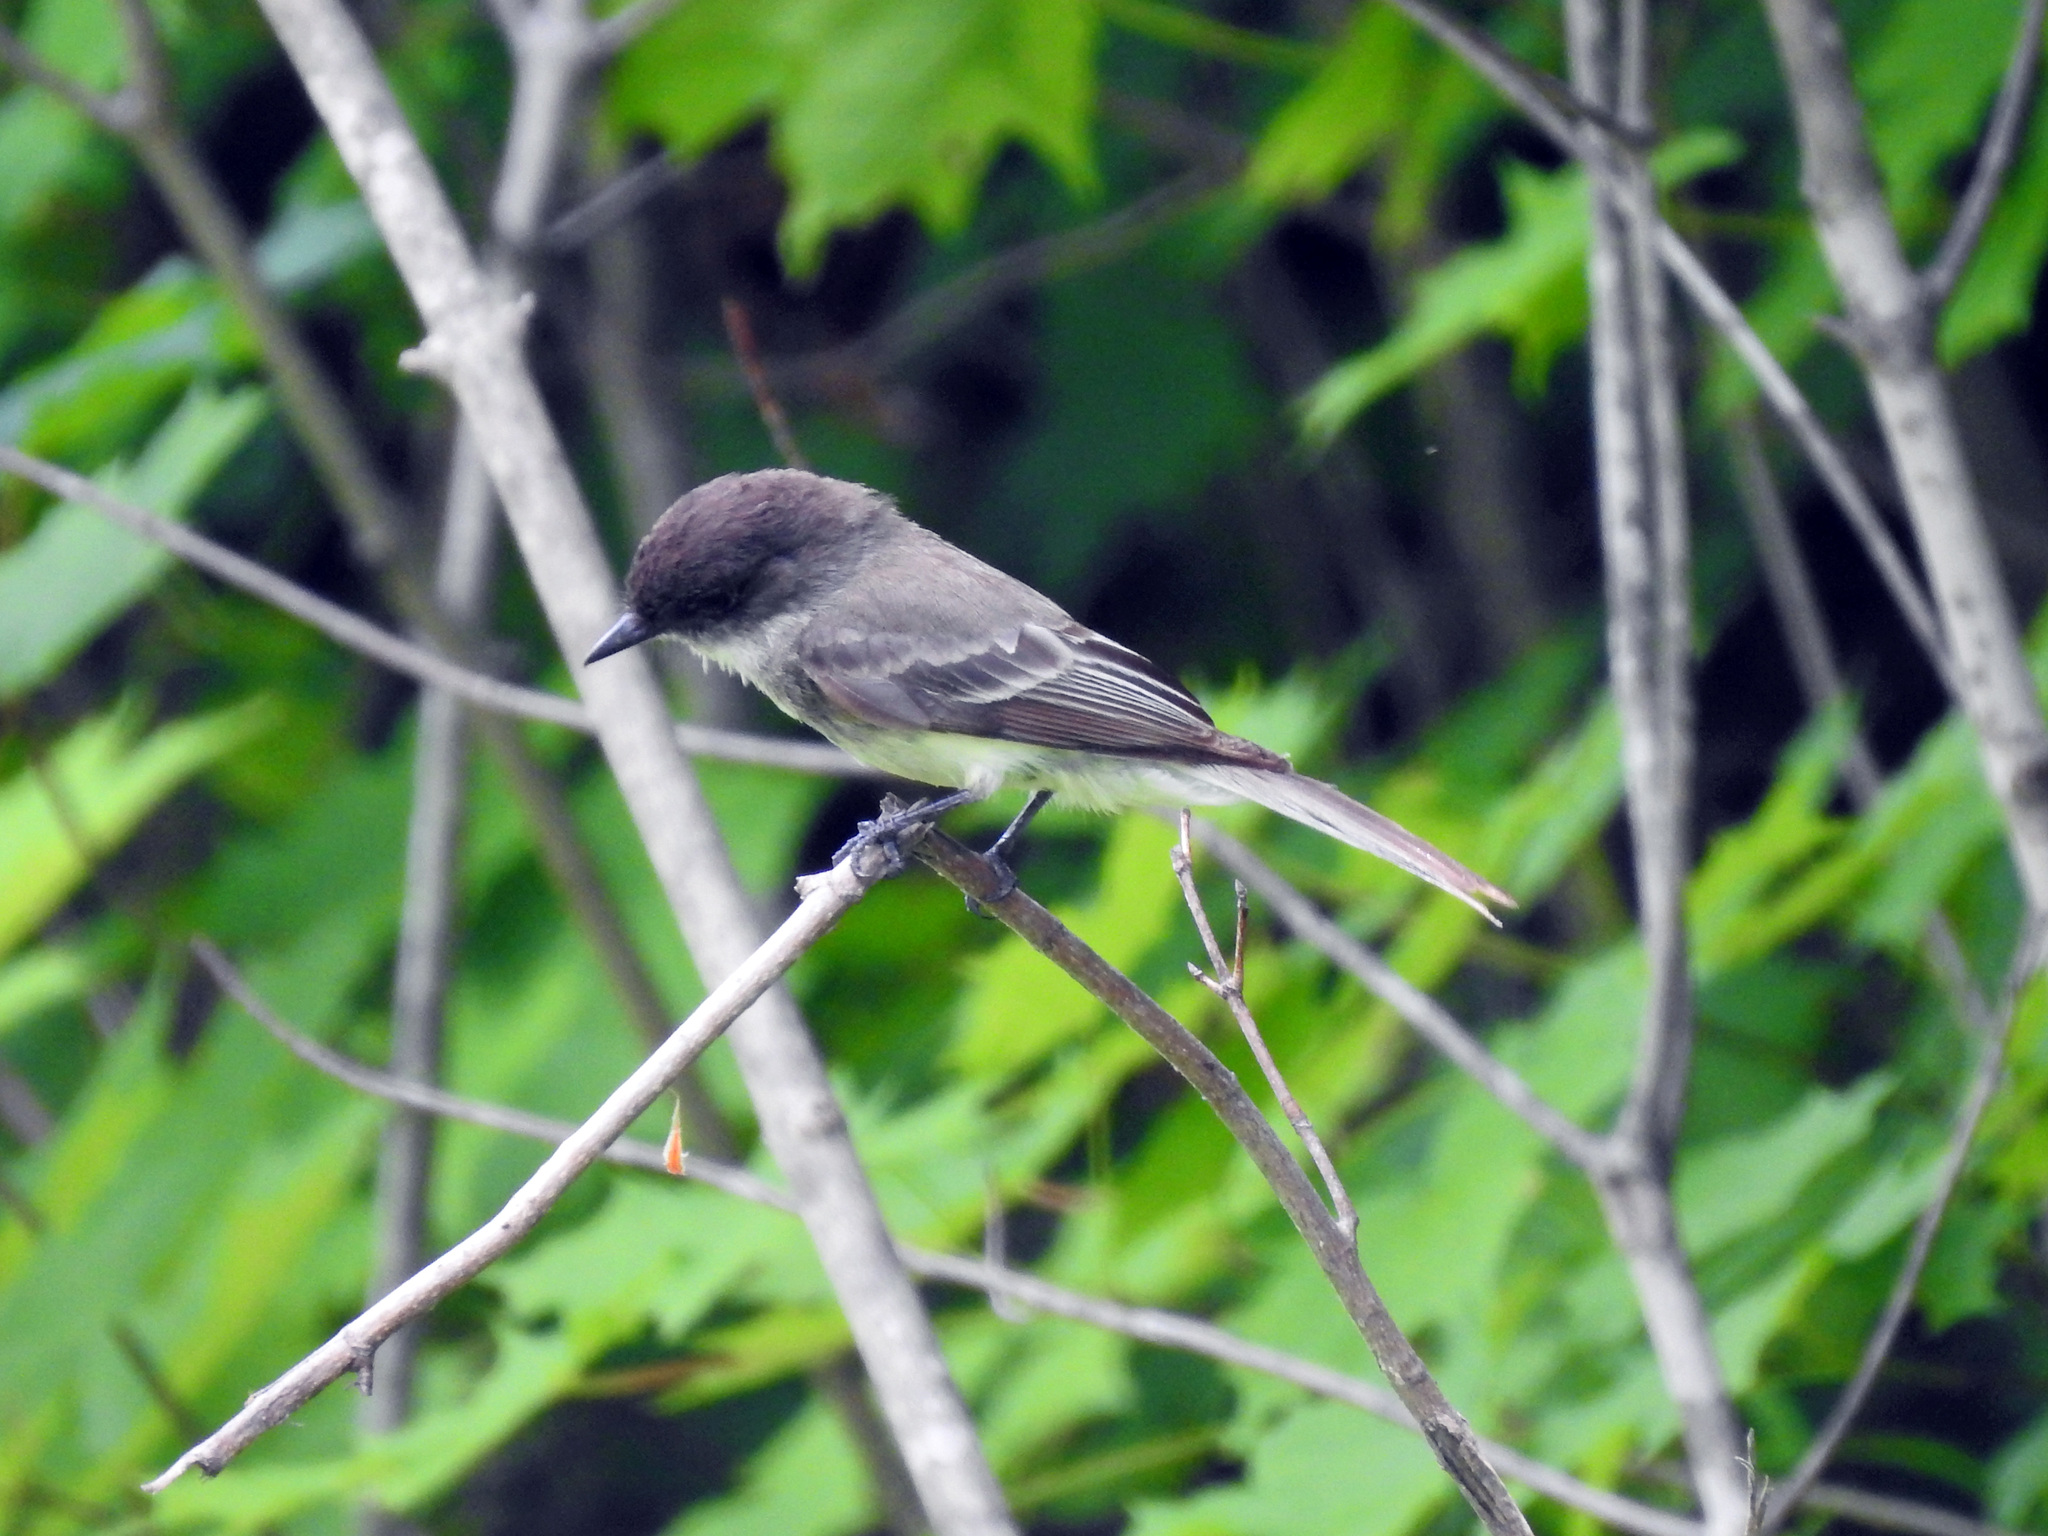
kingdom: Animalia
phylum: Chordata
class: Aves
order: Passeriformes
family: Tyrannidae
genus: Sayornis
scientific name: Sayornis phoebe
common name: Eastern phoebe
